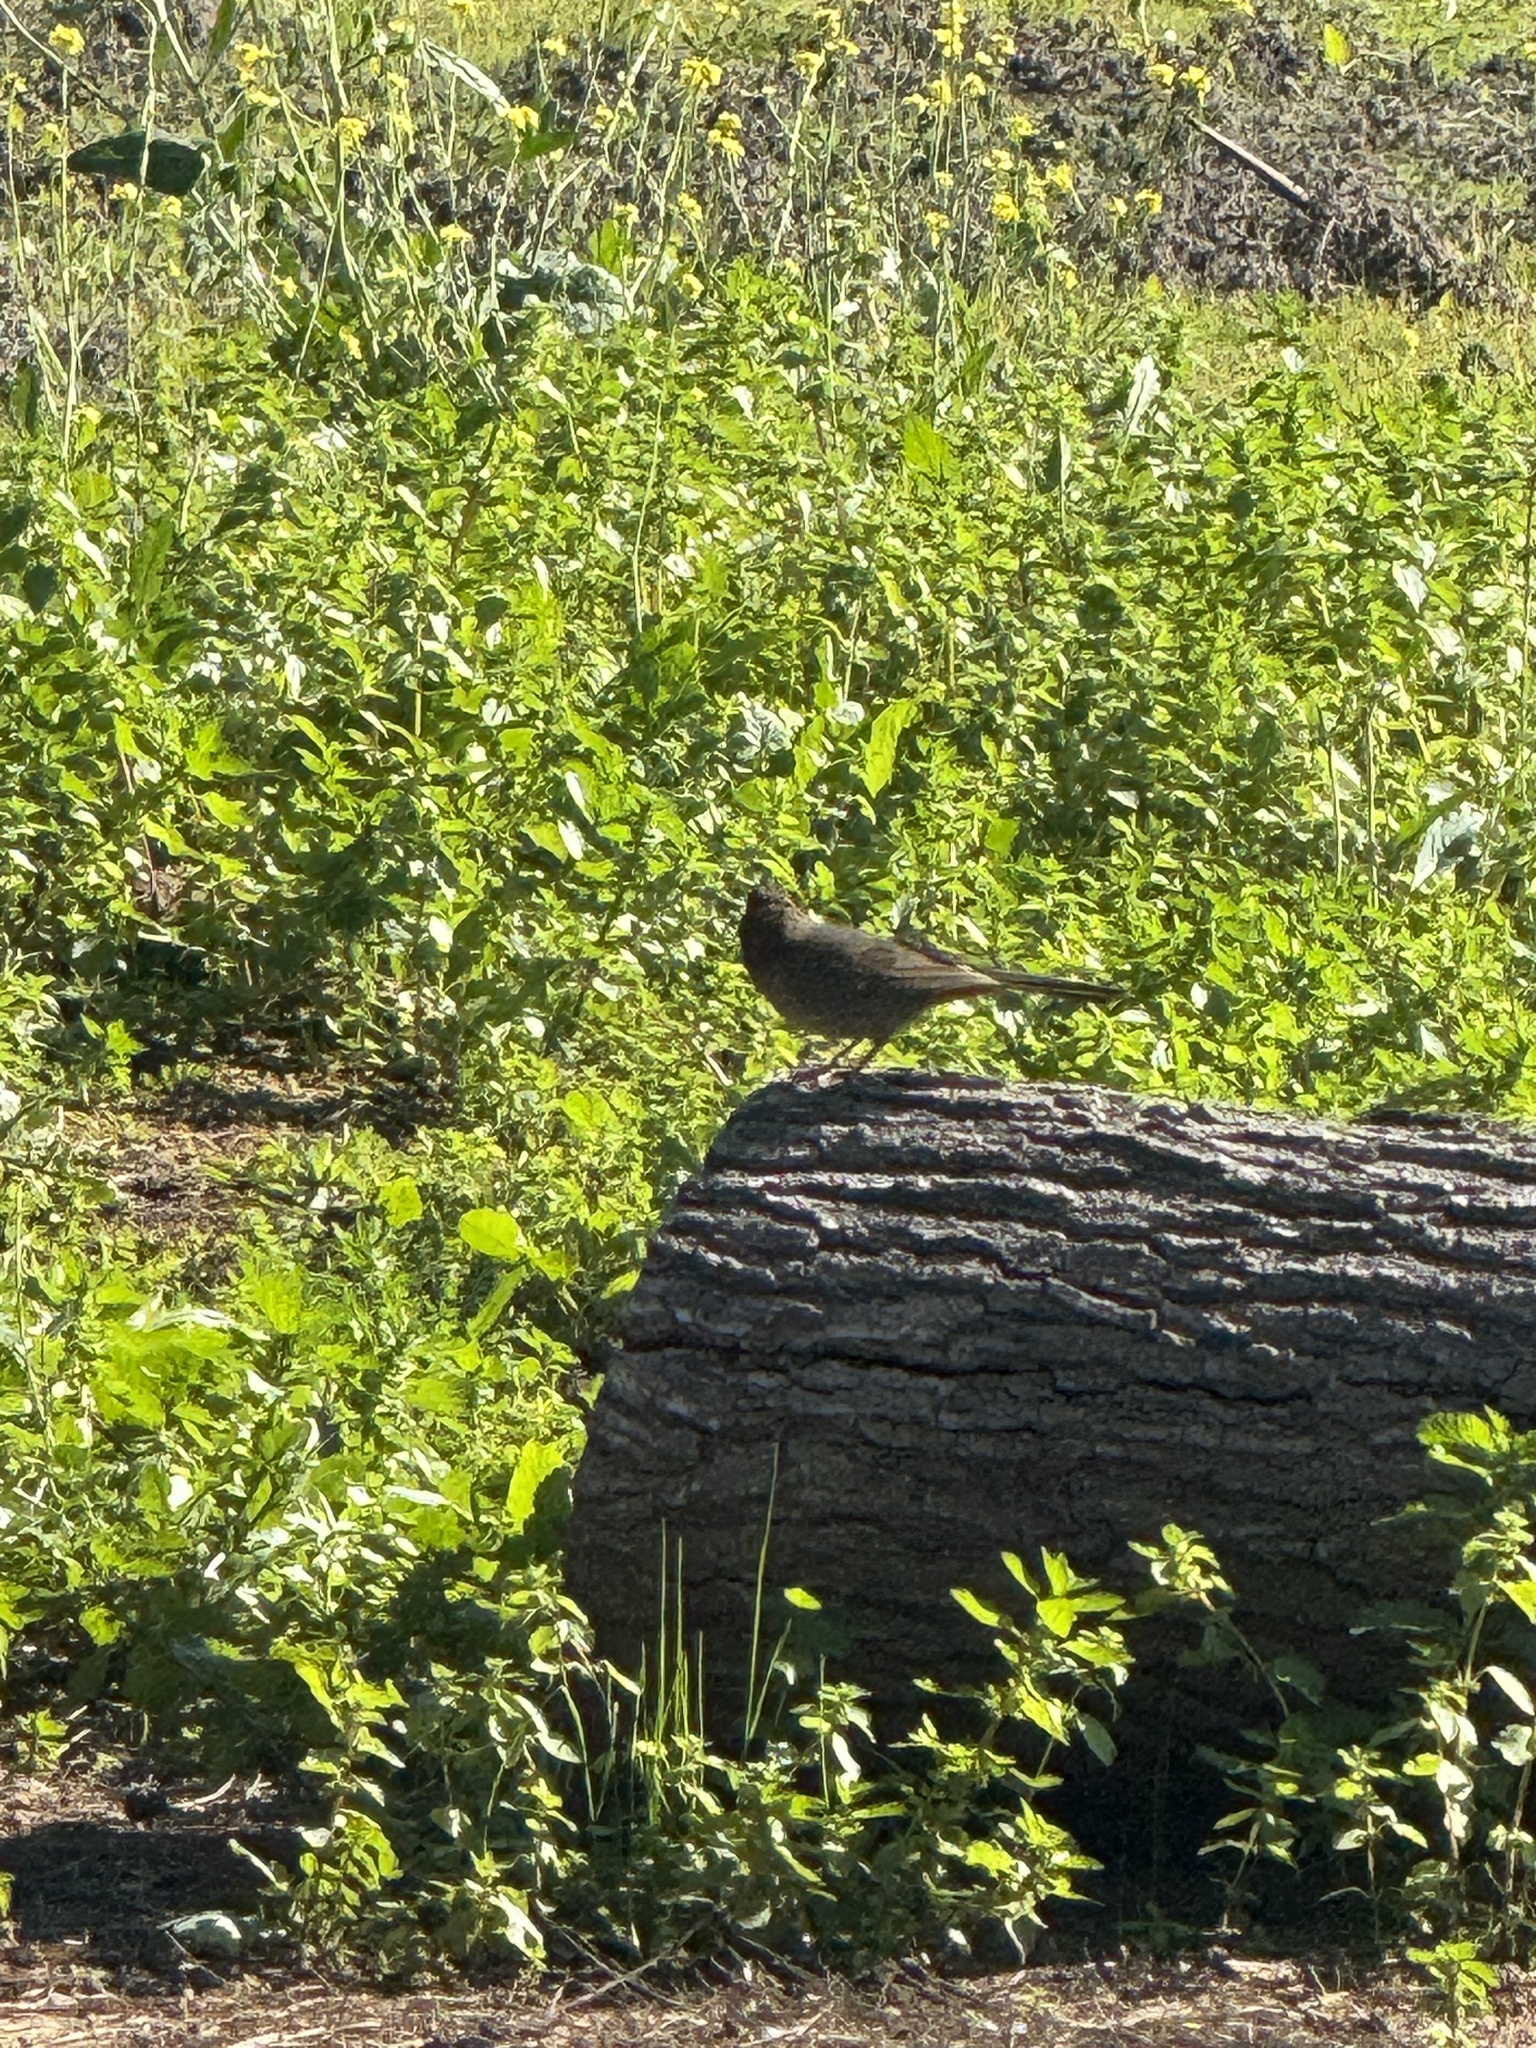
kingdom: Animalia
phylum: Chordata
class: Aves
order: Passeriformes
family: Passerellidae
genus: Melozone
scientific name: Melozone crissalis
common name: California towhee
